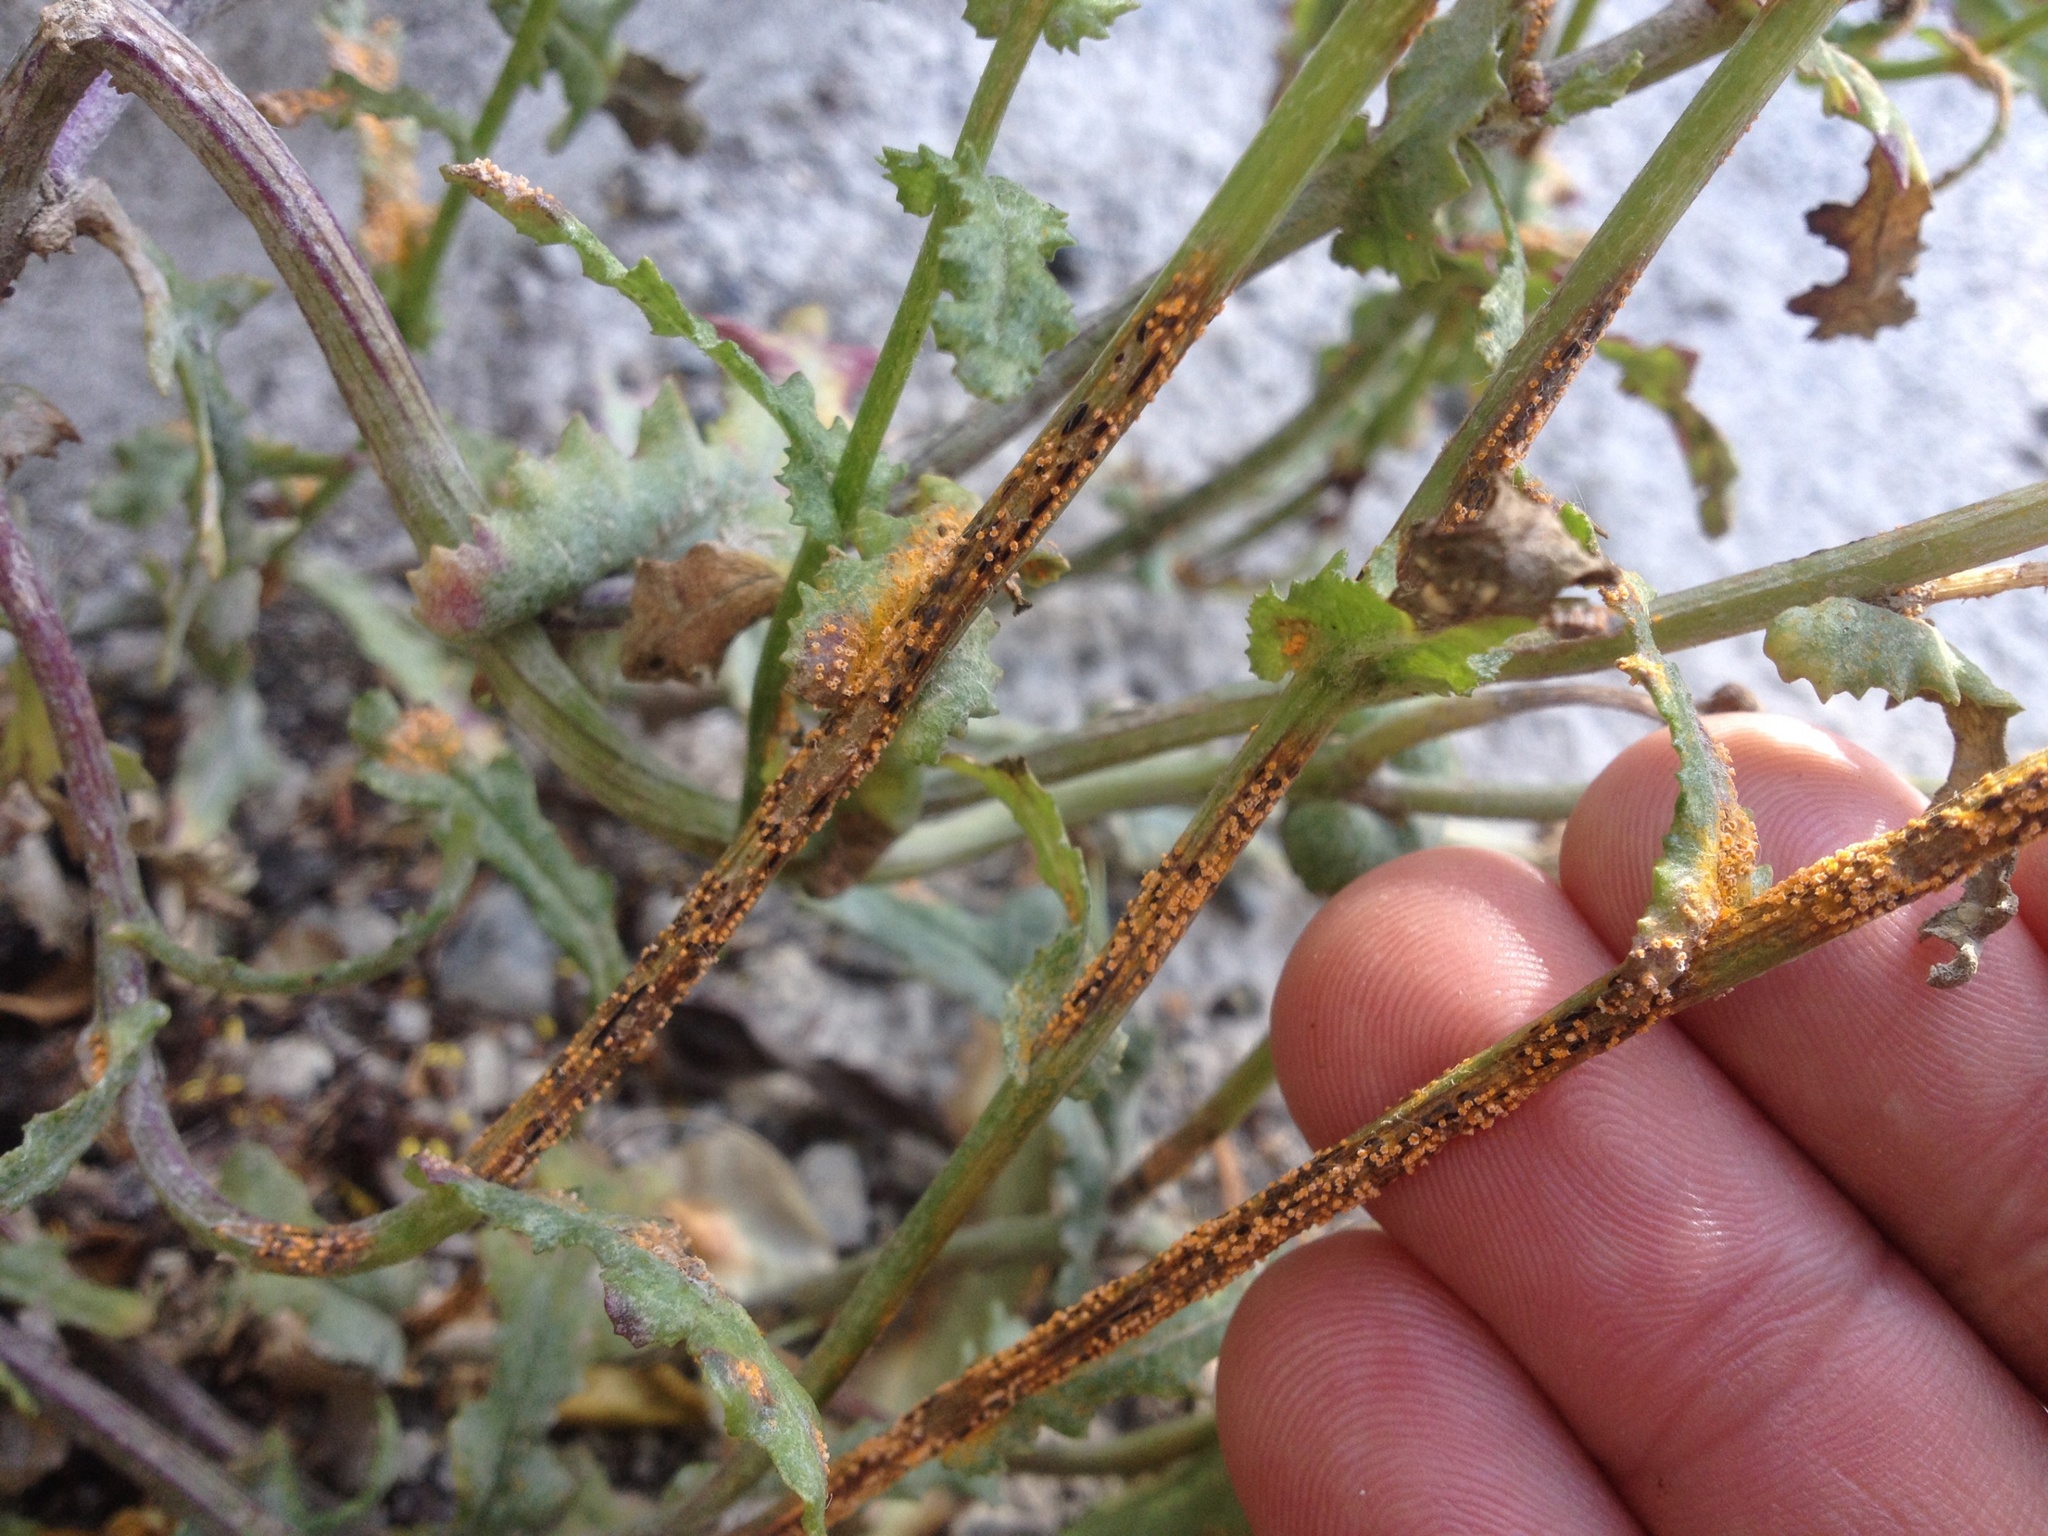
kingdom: Fungi
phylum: Basidiomycota
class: Pucciniomycetes
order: Pucciniales
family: Pucciniaceae
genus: Puccinia
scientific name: Puccinia lagenophorae
